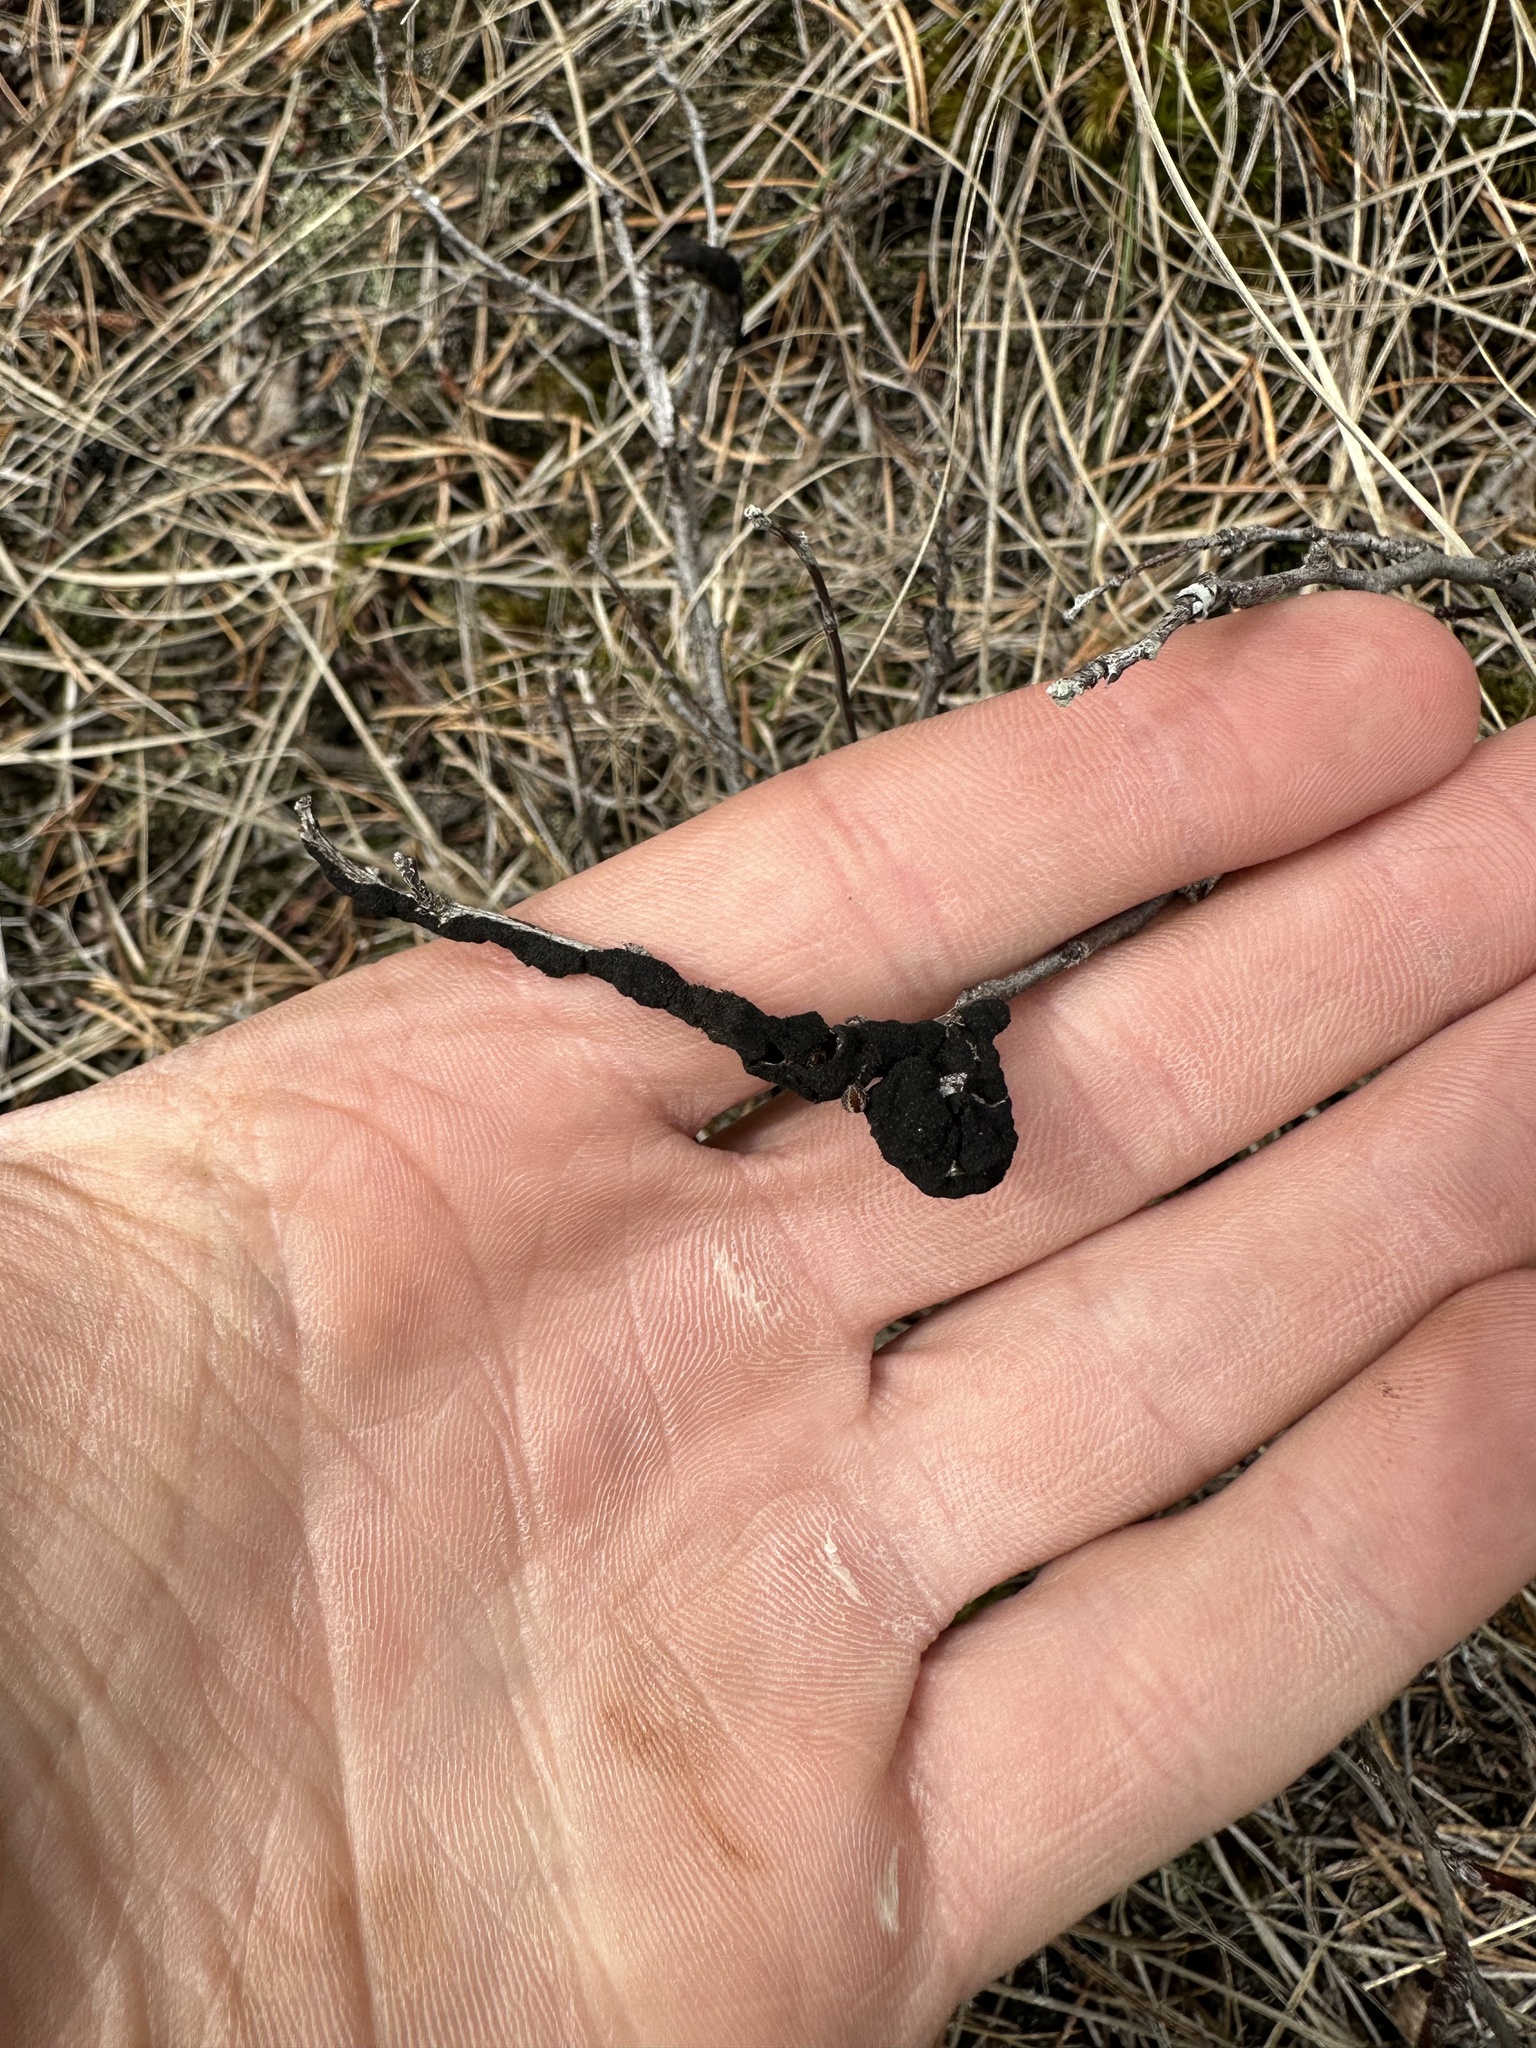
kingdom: Fungi
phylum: Ascomycota
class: Dothideomycetes
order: Venturiales
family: Venturiaceae
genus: Apiosporina
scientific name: Apiosporina morbosa
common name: Black knot
